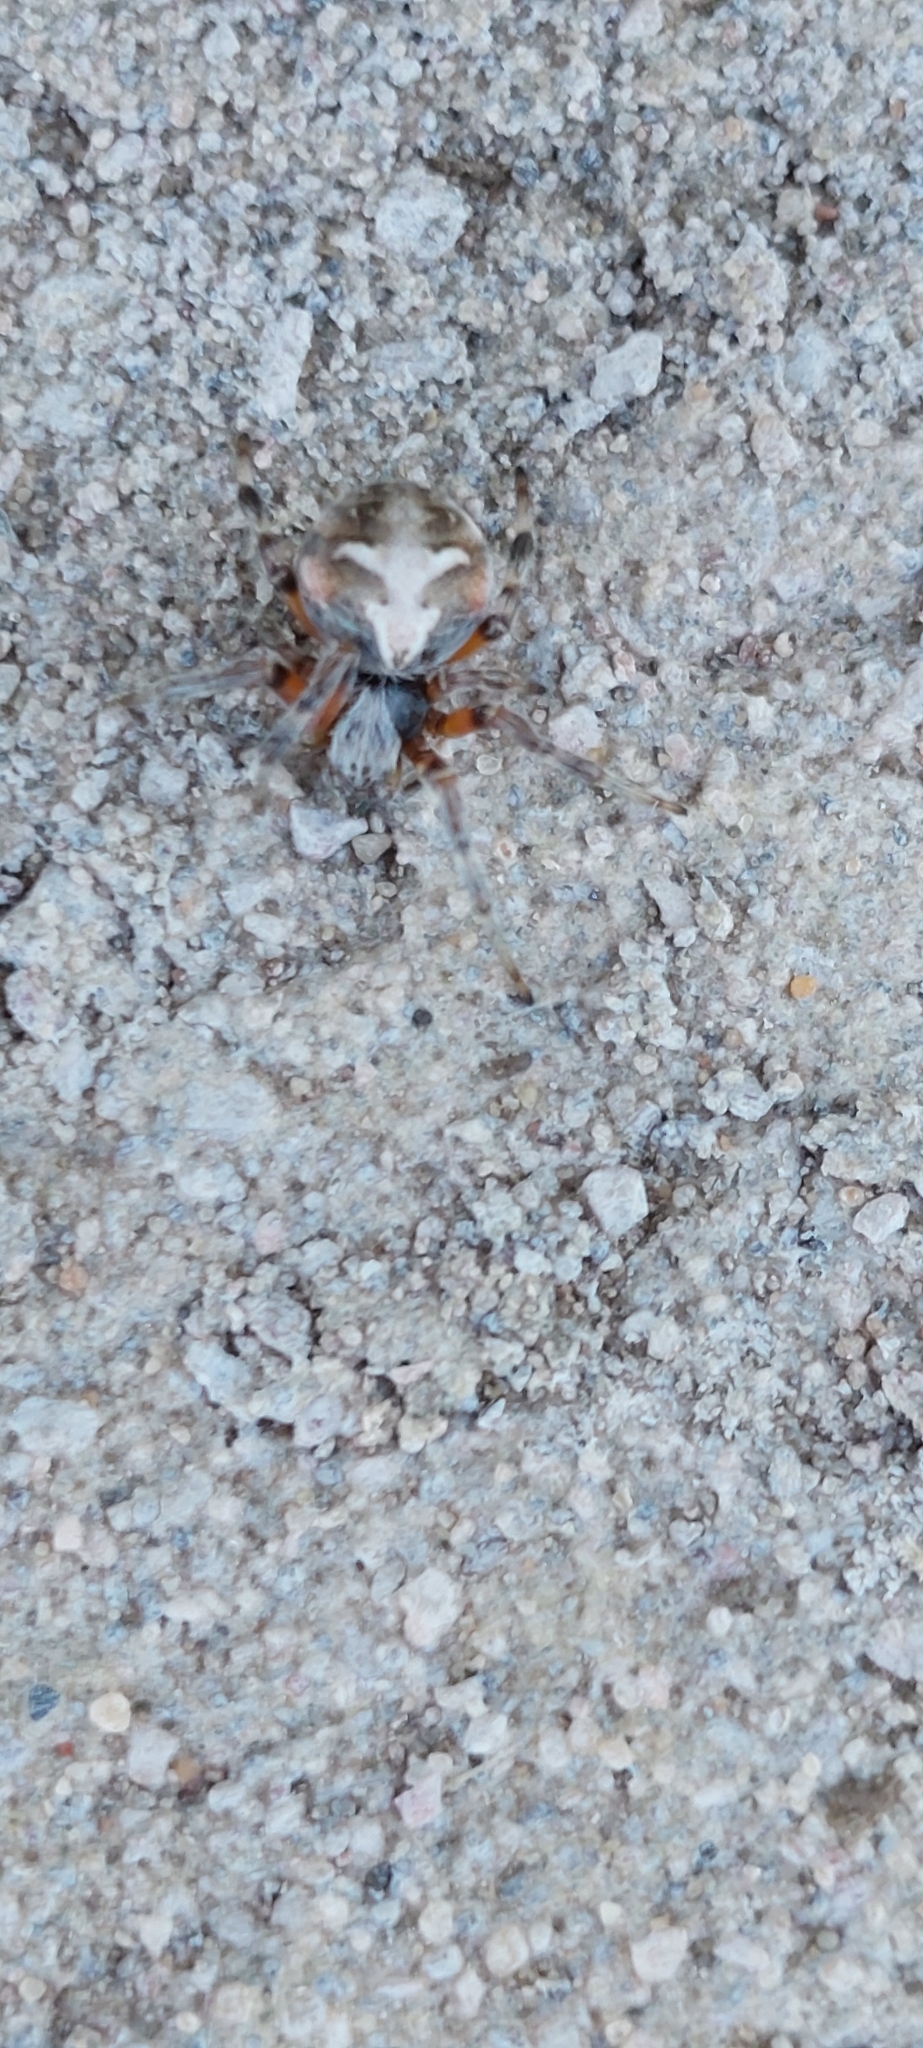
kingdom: Animalia
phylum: Arthropoda
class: Arachnida
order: Araneae
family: Araneidae
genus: Metepeira
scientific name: Metepeira
